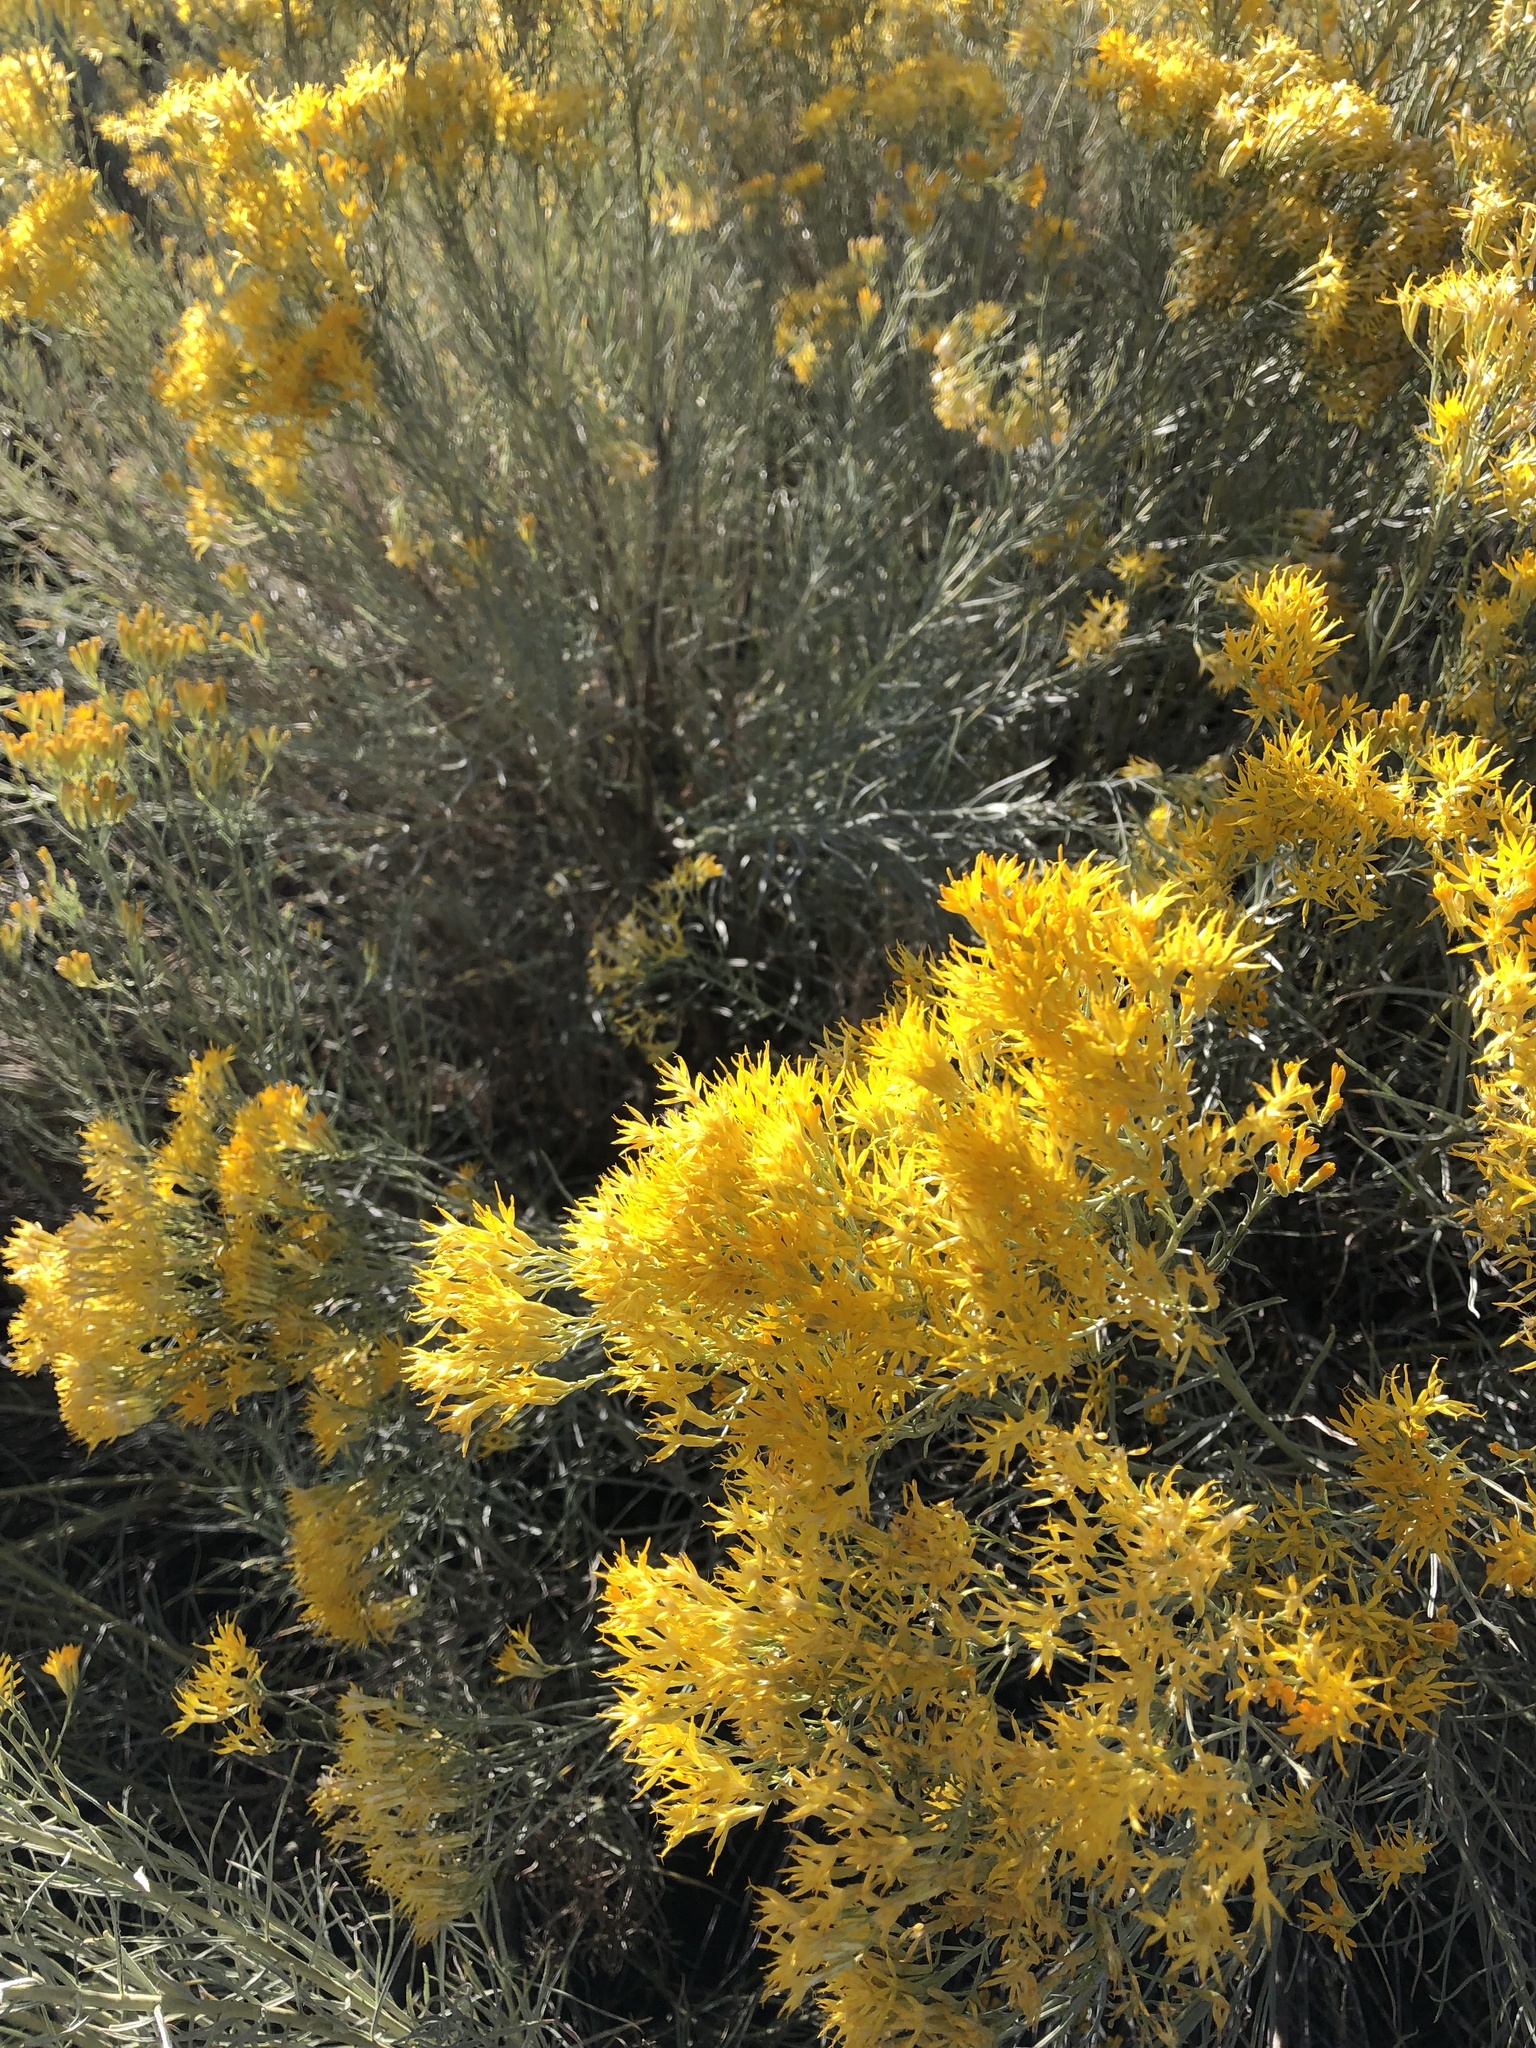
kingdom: Plantae
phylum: Tracheophyta
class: Magnoliopsida
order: Asterales
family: Asteraceae
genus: Ericameria
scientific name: Ericameria nauseosa
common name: Rubber rabbitbrush
